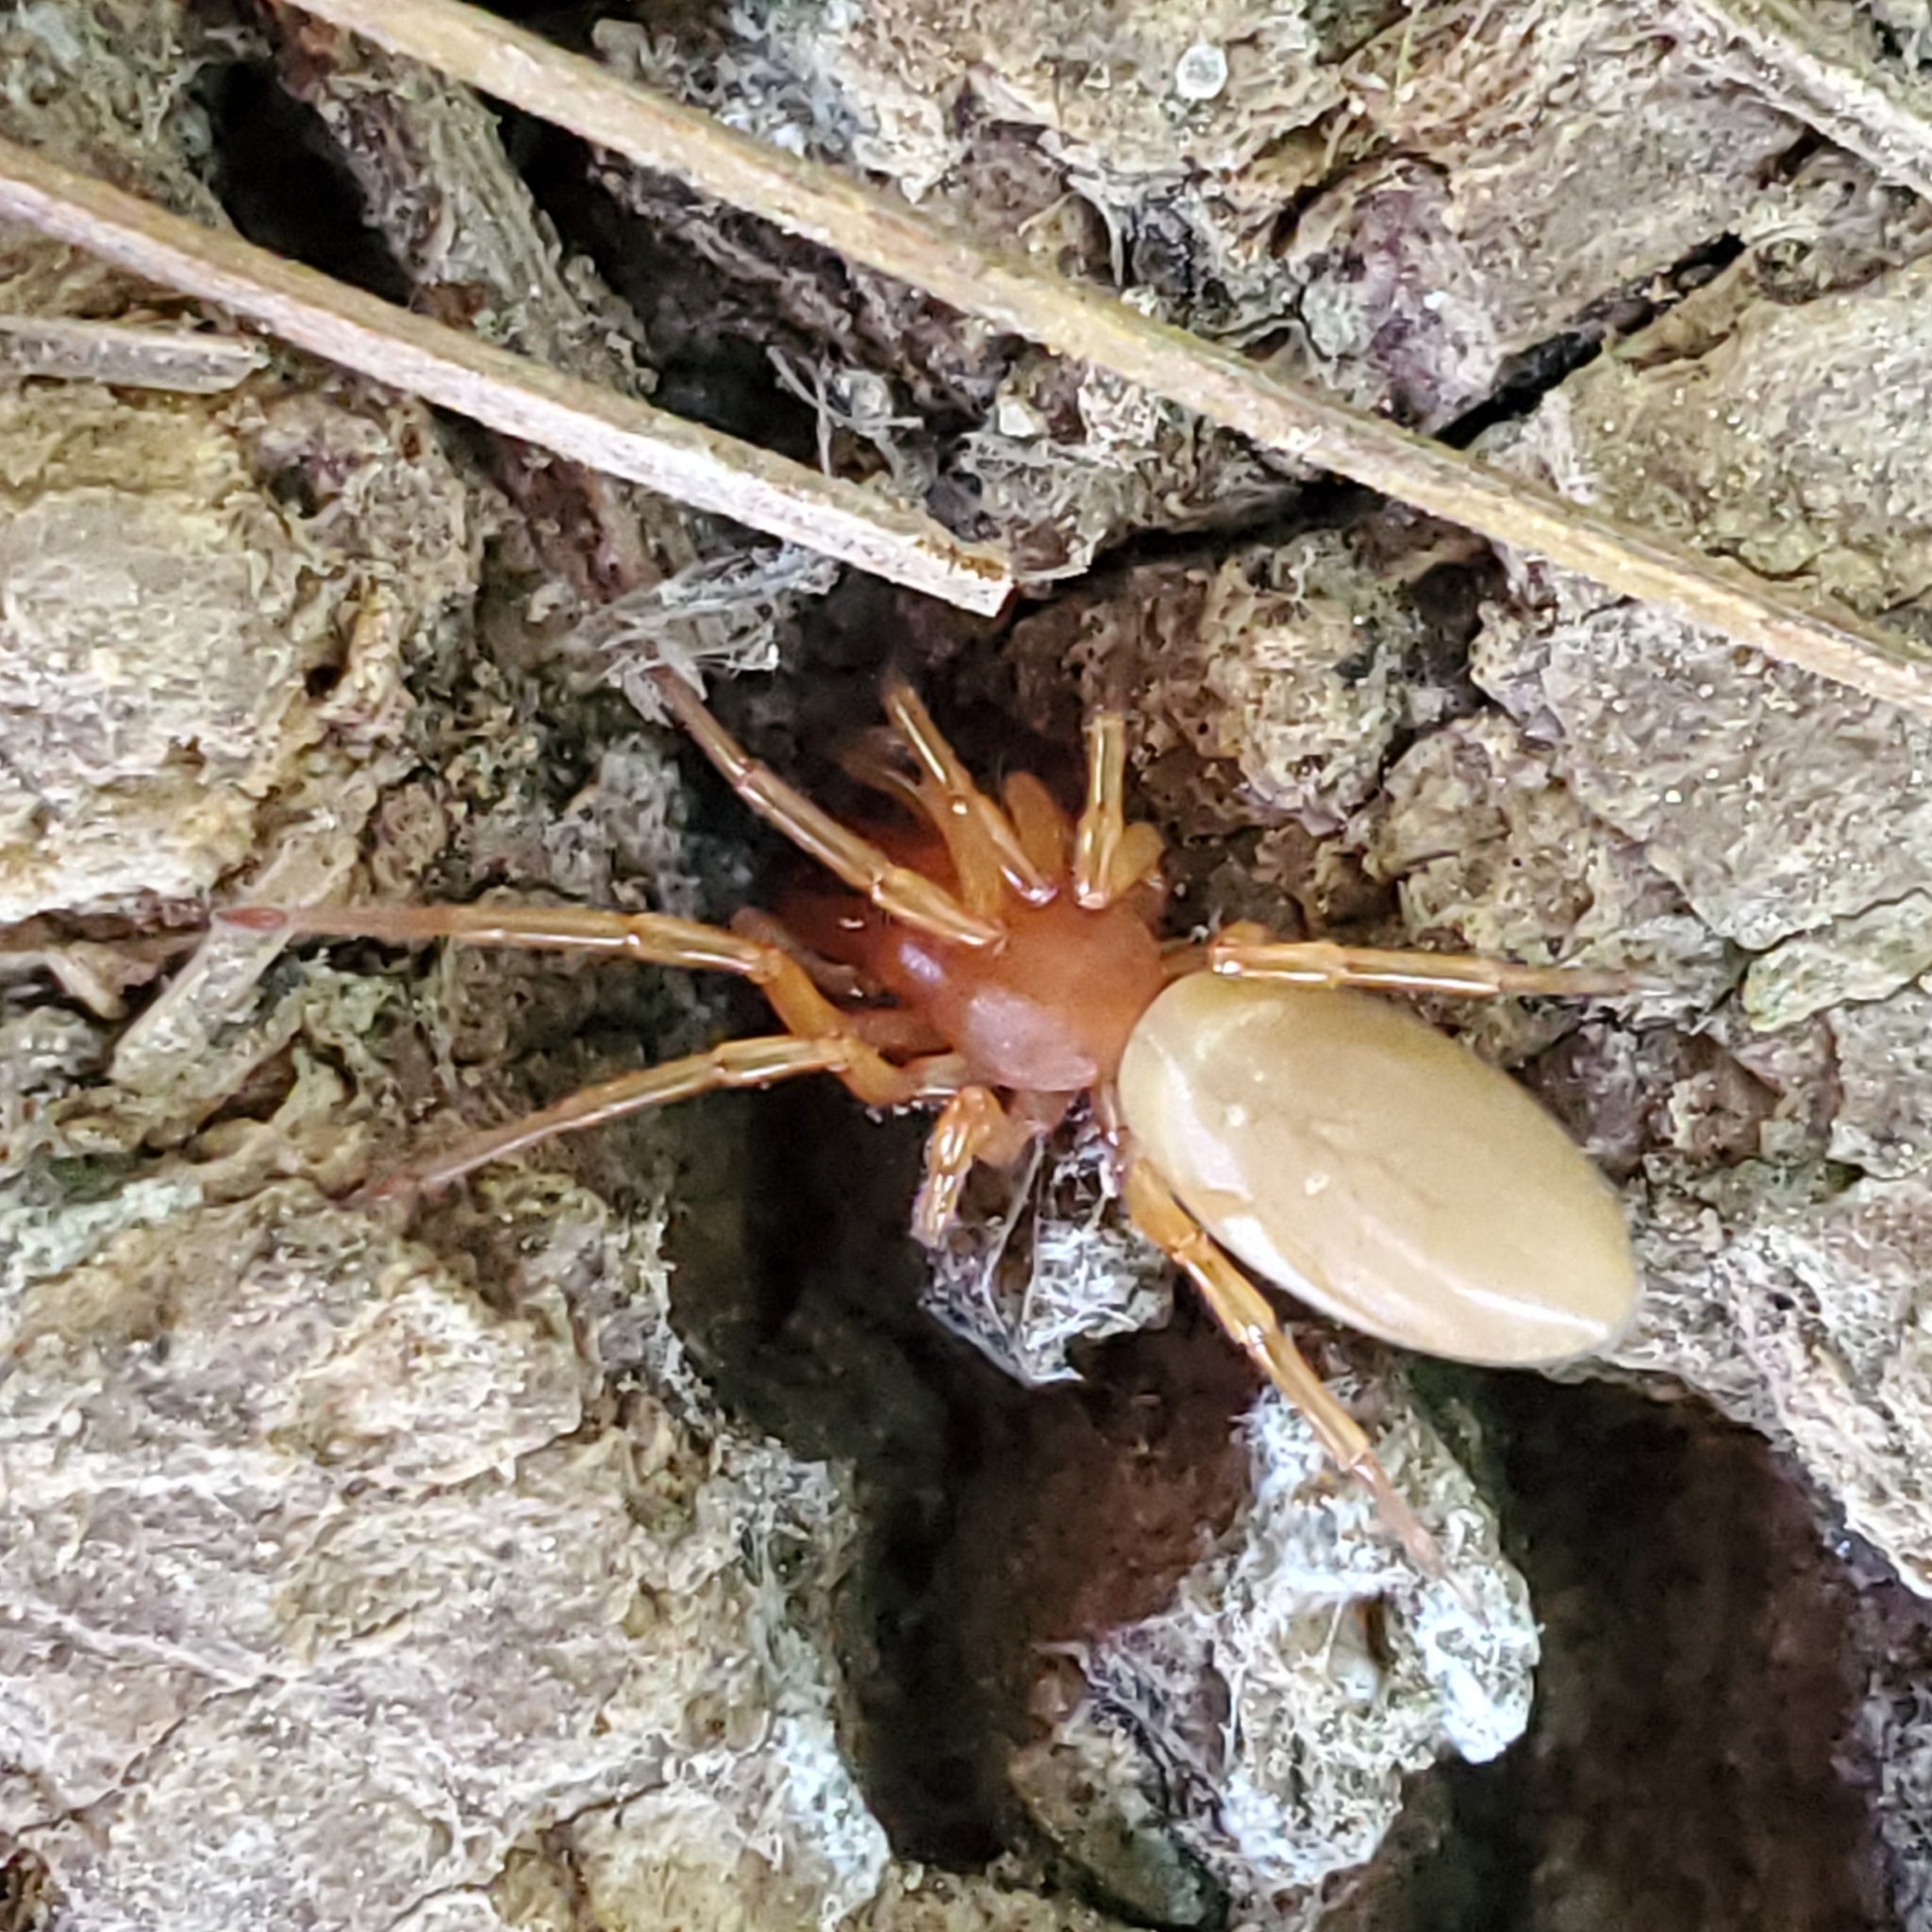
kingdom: Animalia
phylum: Arthropoda
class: Arachnida
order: Araneae
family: Dysderidae
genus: Dysdera
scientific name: Dysdera crocata
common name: Woodlouse spider
